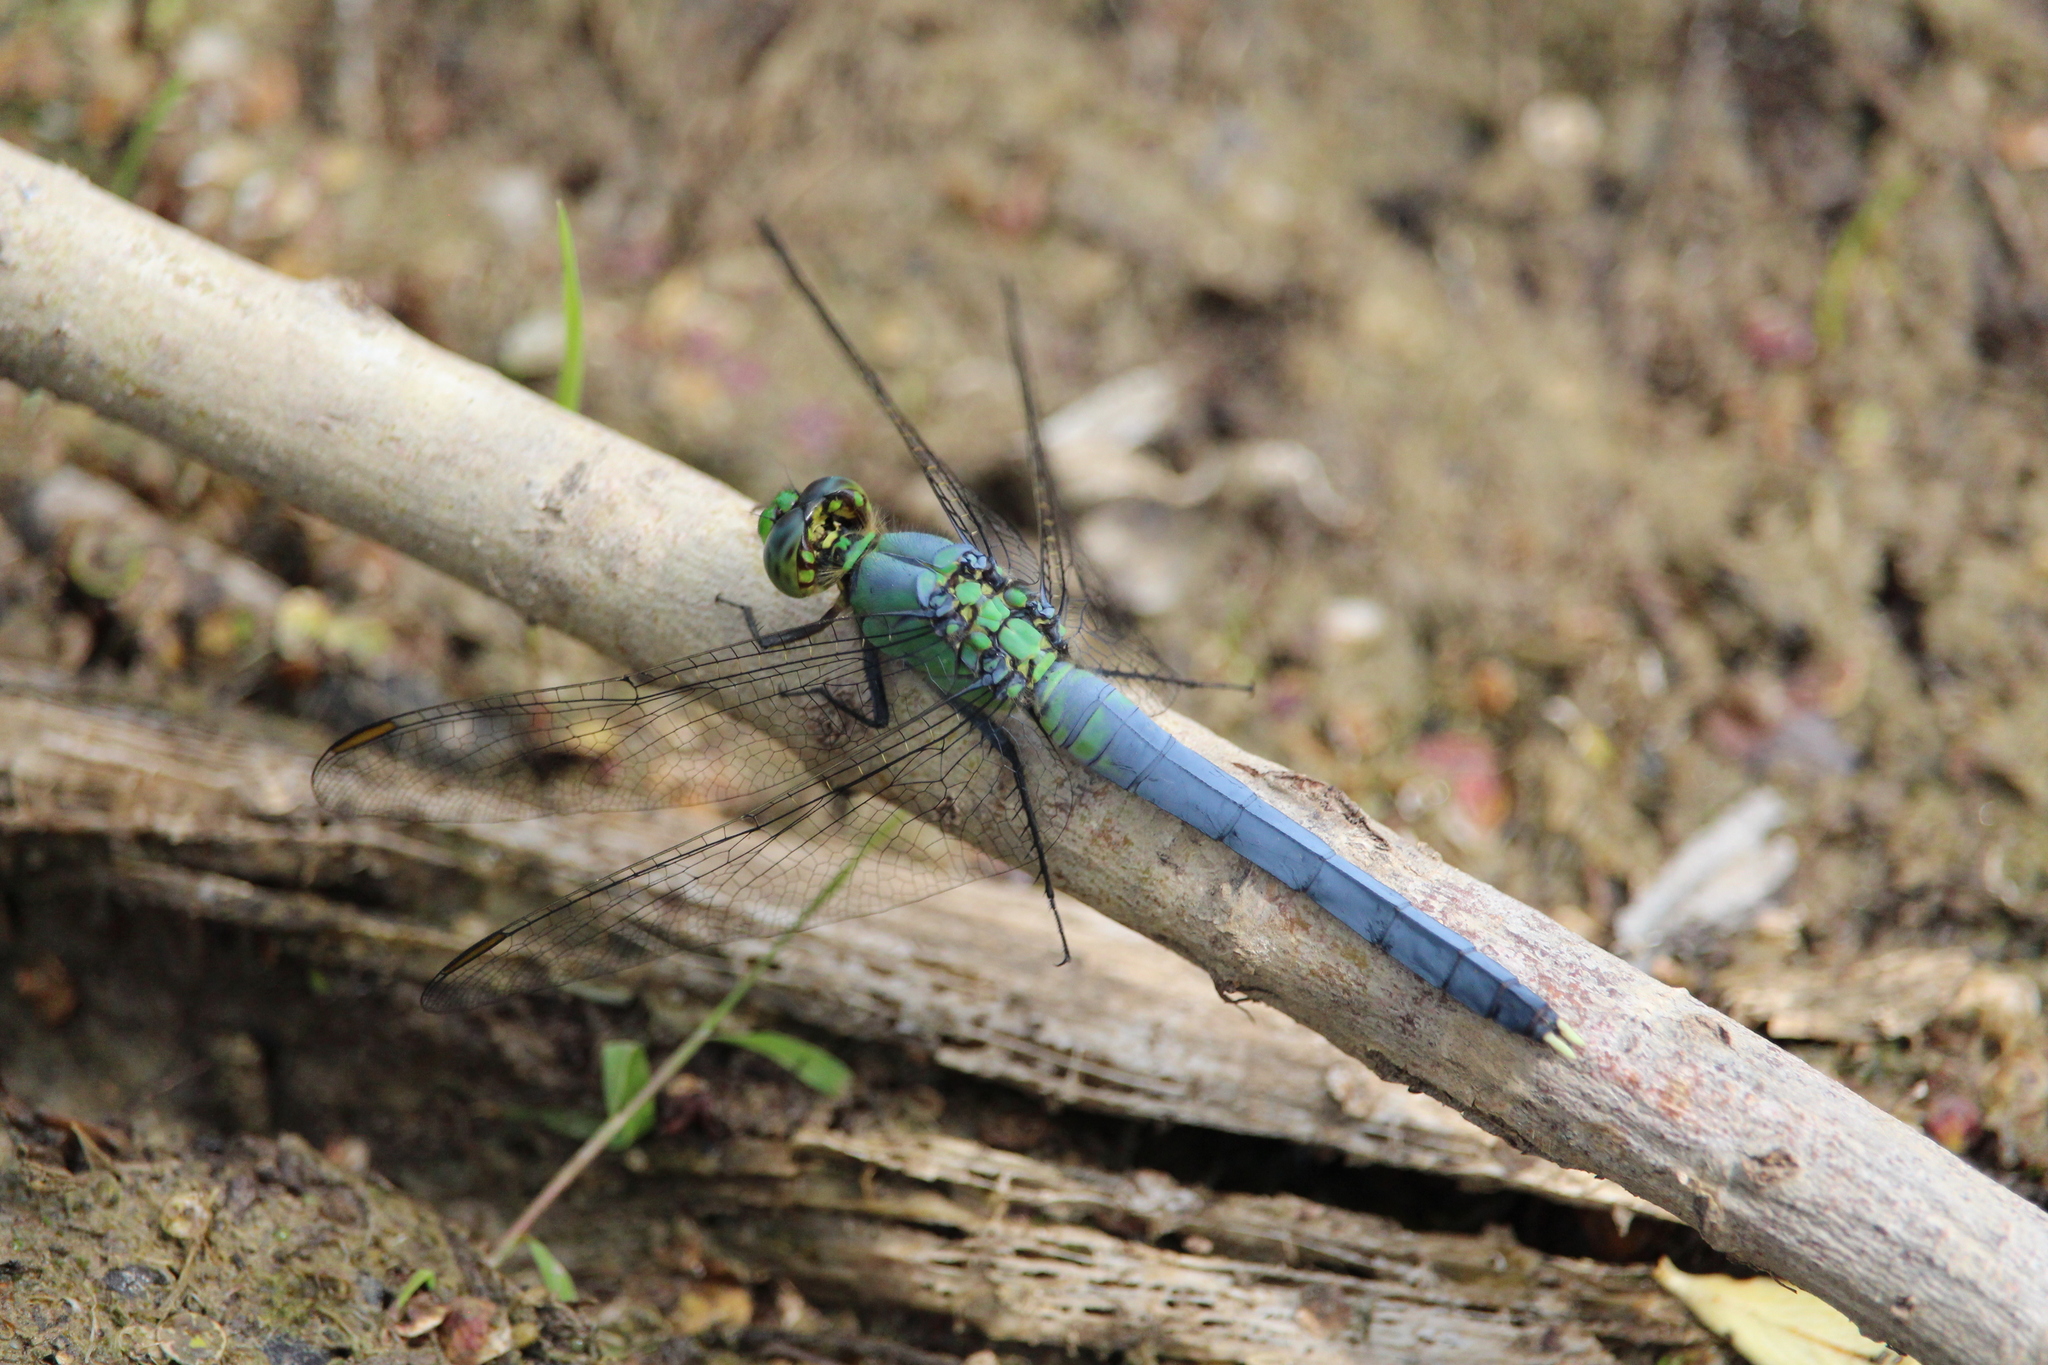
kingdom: Animalia
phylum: Arthropoda
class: Insecta
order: Odonata
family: Libellulidae
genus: Erythemis
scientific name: Erythemis simplicicollis
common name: Eastern pondhawk
